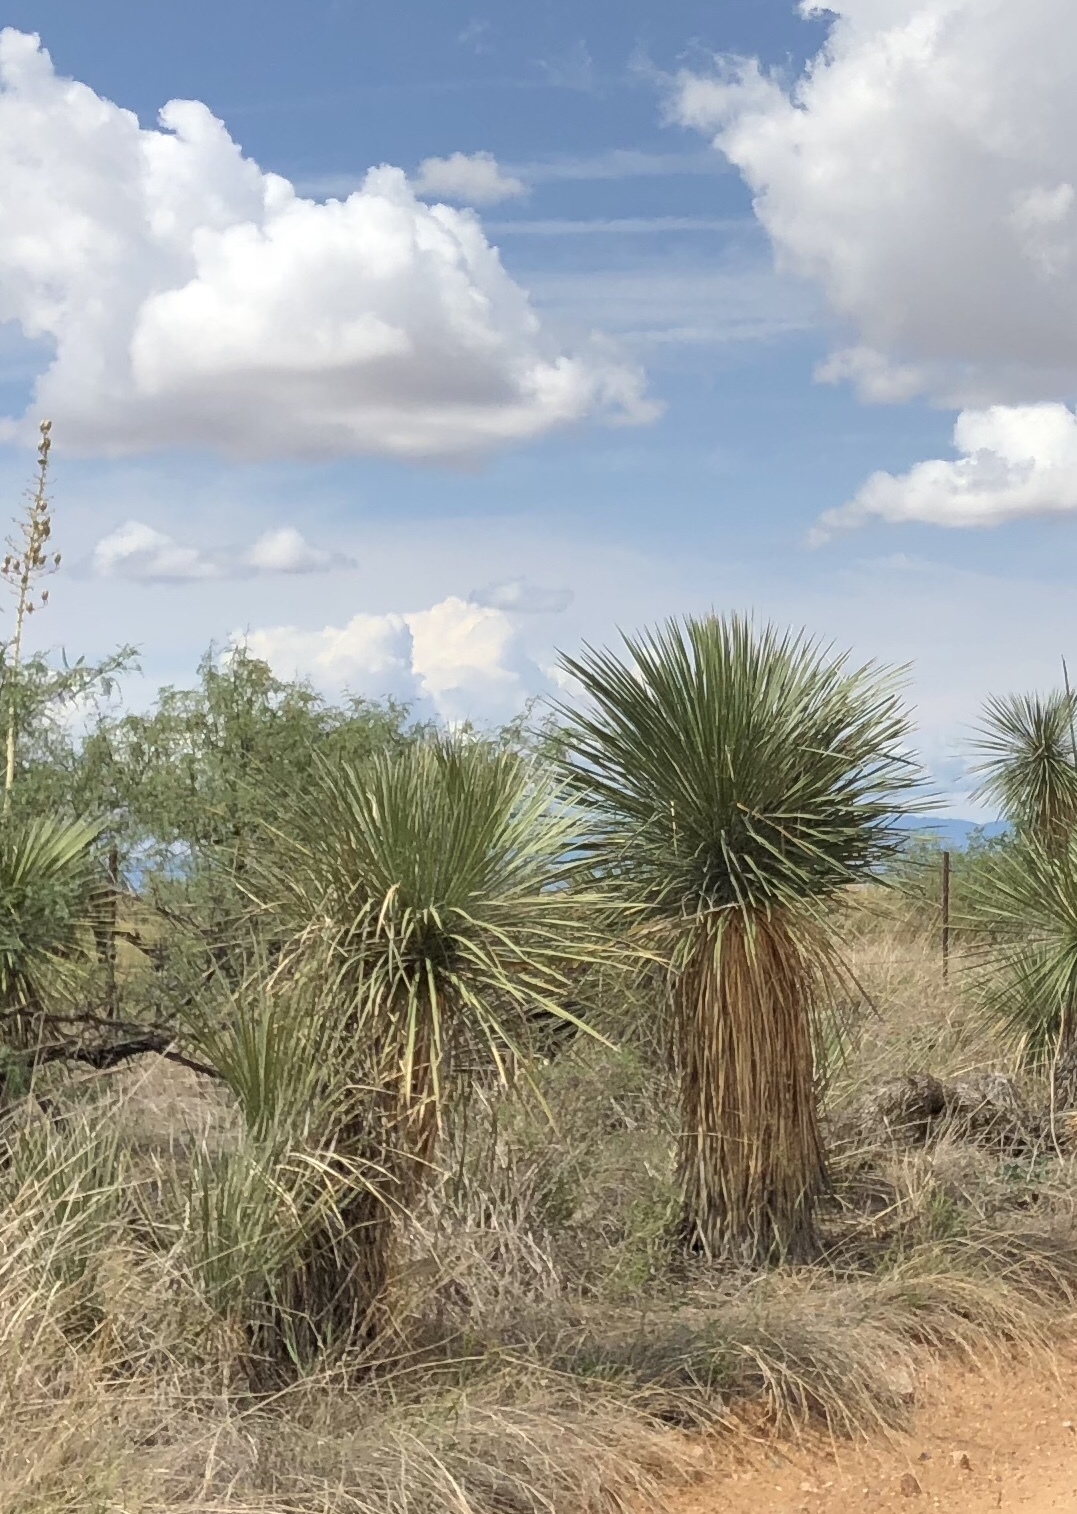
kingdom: Plantae
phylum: Tracheophyta
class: Liliopsida
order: Asparagales
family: Asparagaceae
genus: Yucca
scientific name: Yucca elata
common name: Palmella
